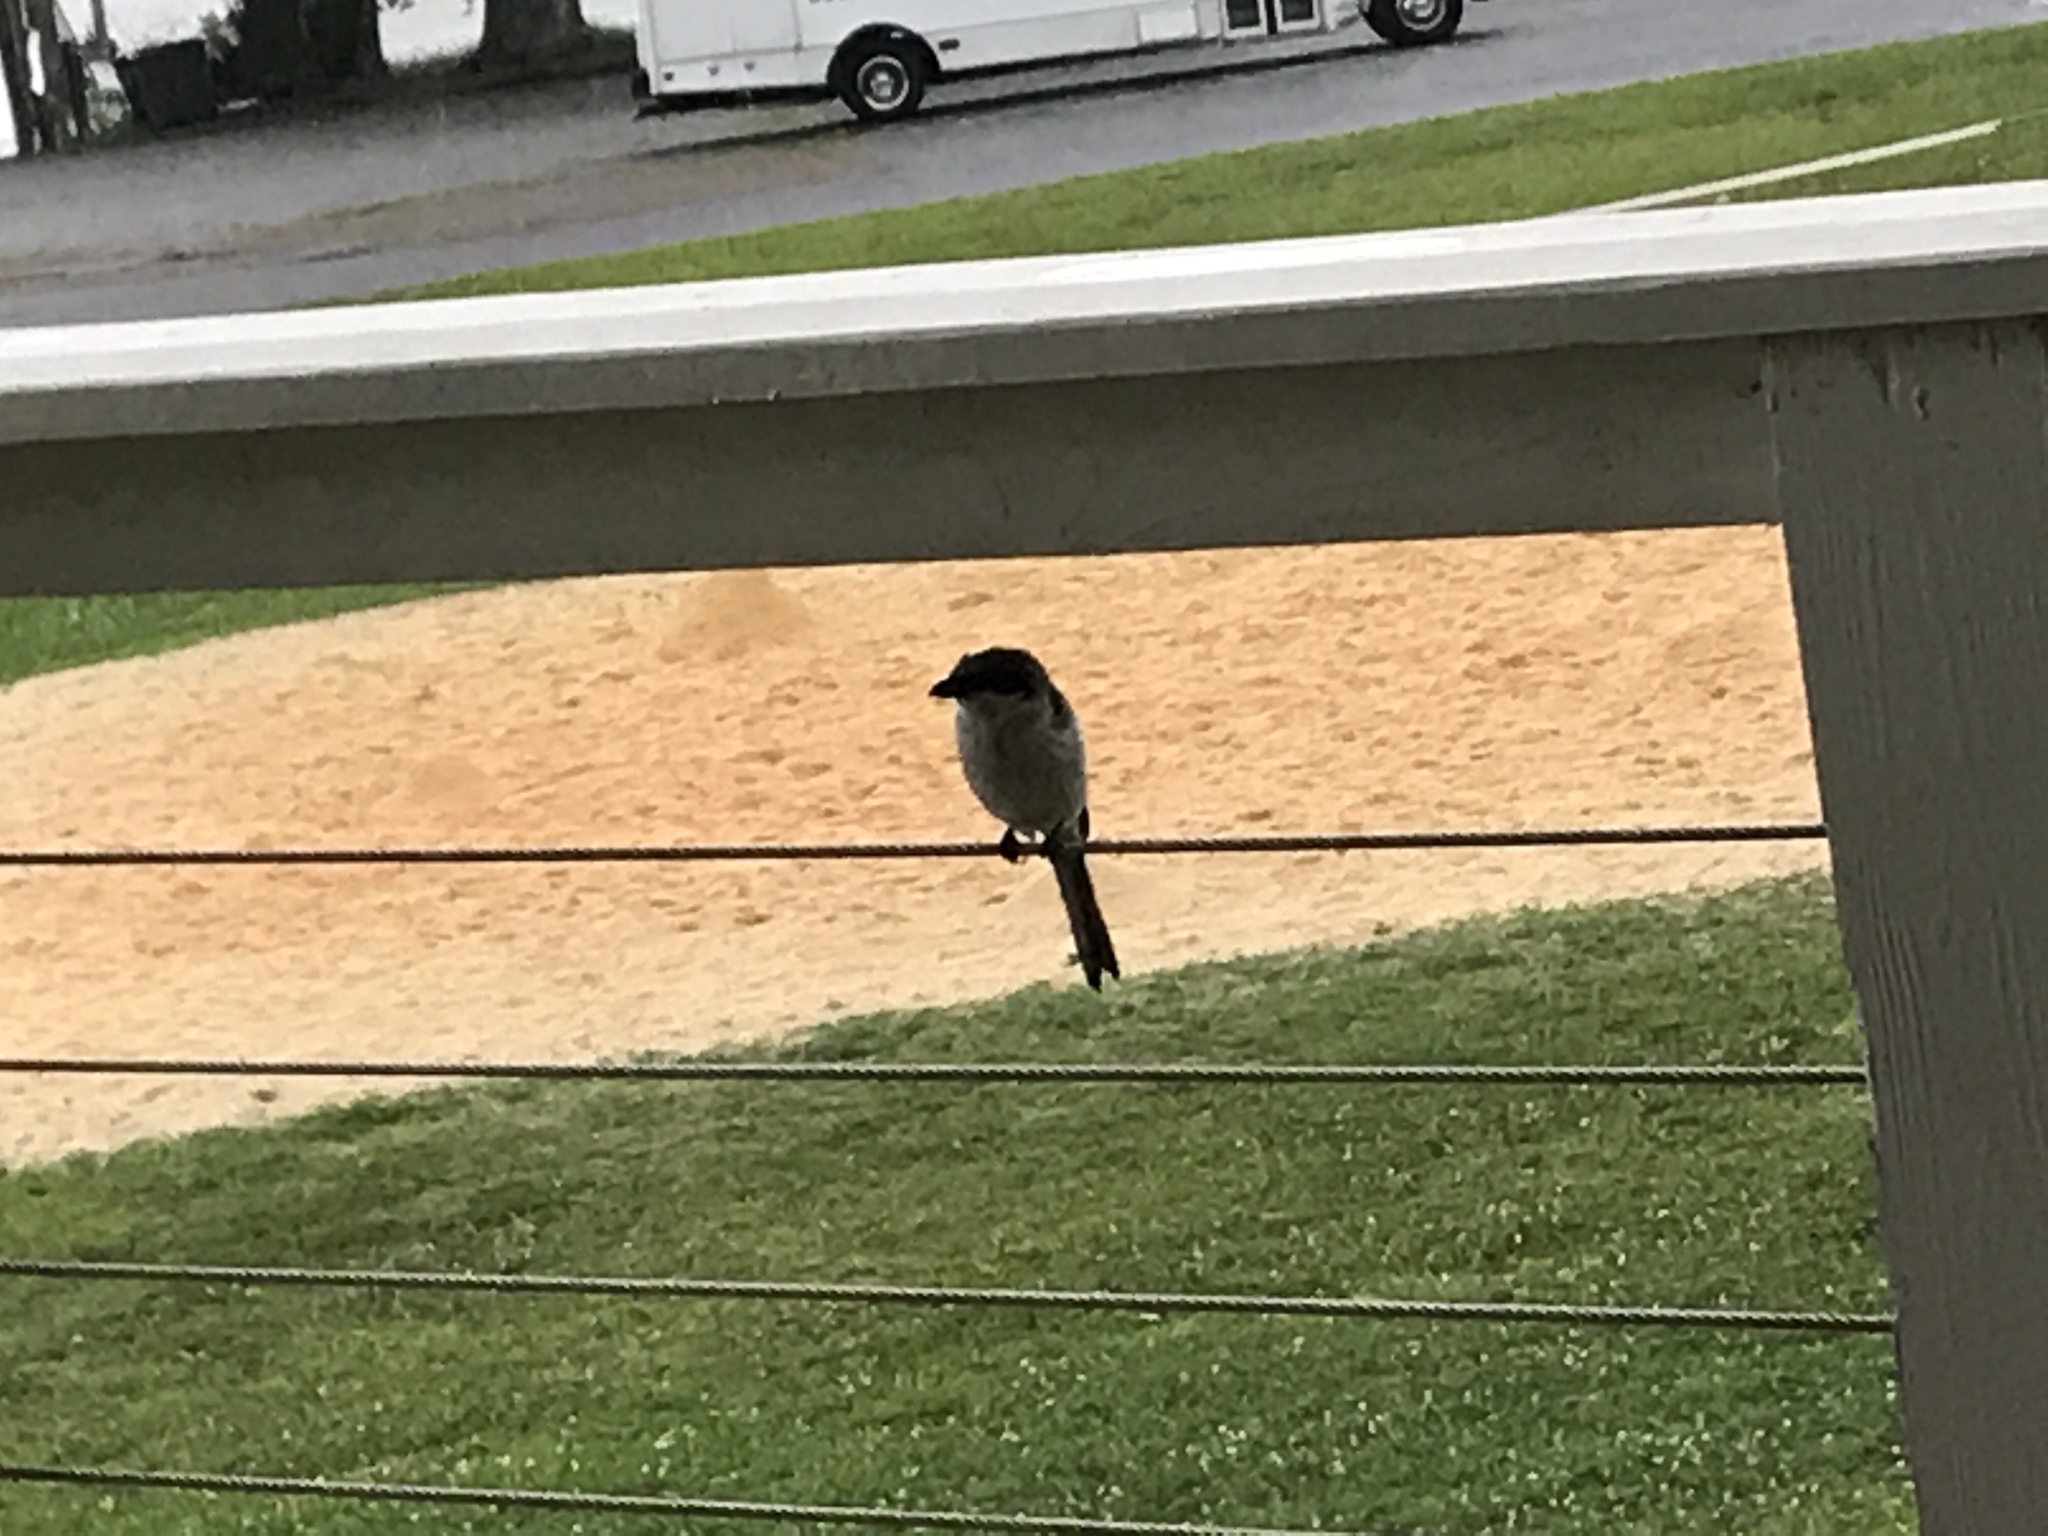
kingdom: Animalia
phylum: Chordata
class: Aves
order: Passeriformes
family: Laniidae
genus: Lanius
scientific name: Lanius ludovicianus
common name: Loggerhead shrike
